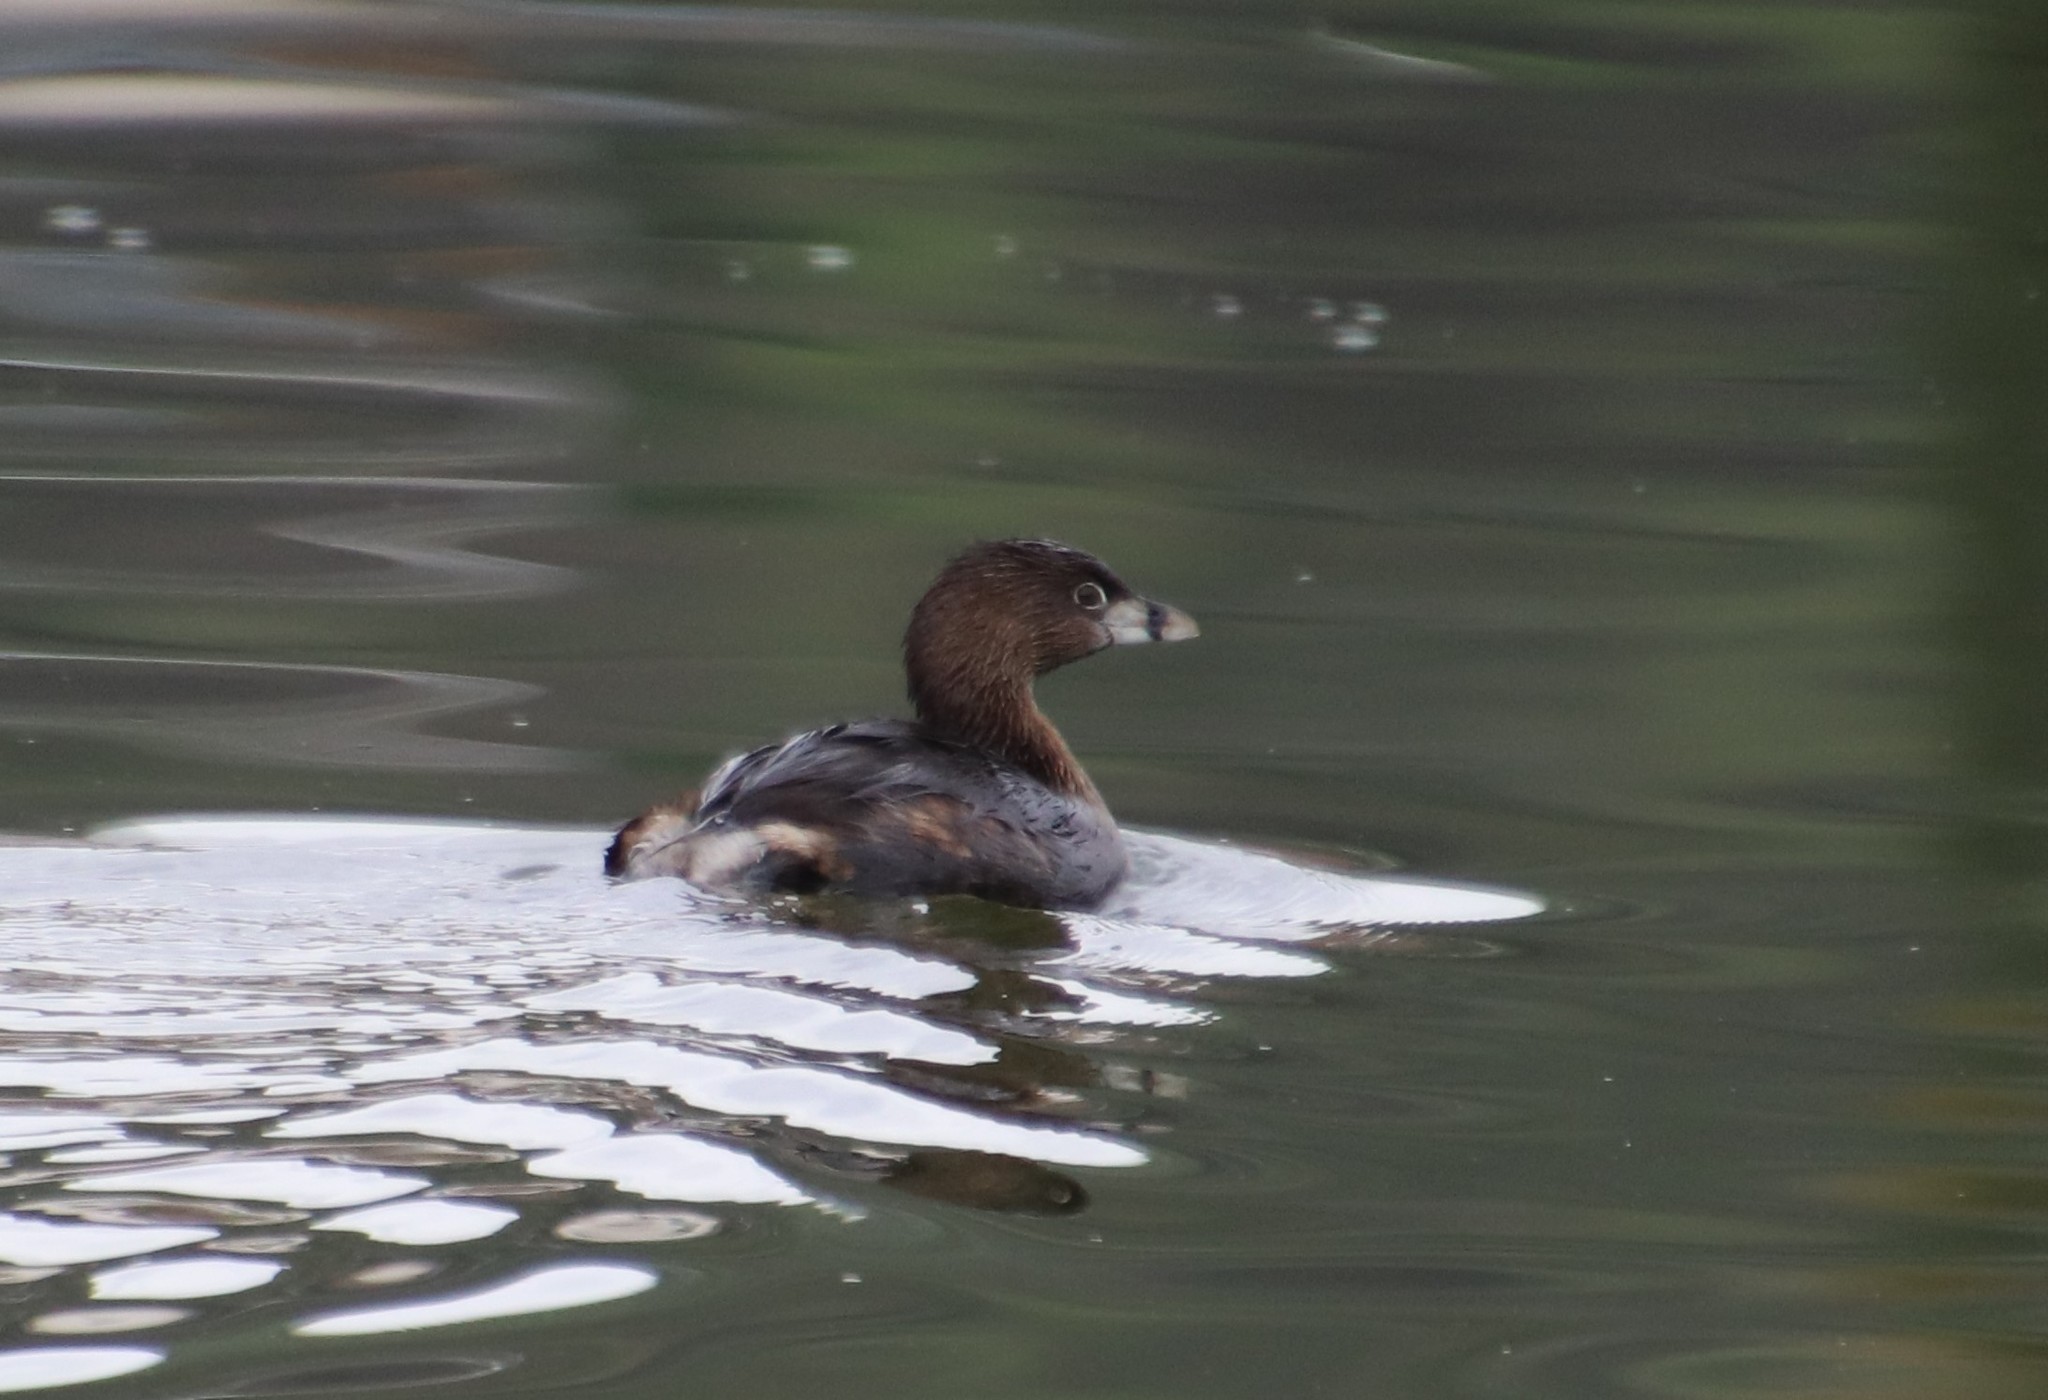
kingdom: Animalia
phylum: Chordata
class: Aves
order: Podicipediformes
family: Podicipedidae
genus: Podilymbus
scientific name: Podilymbus podiceps
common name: Pied-billed grebe
